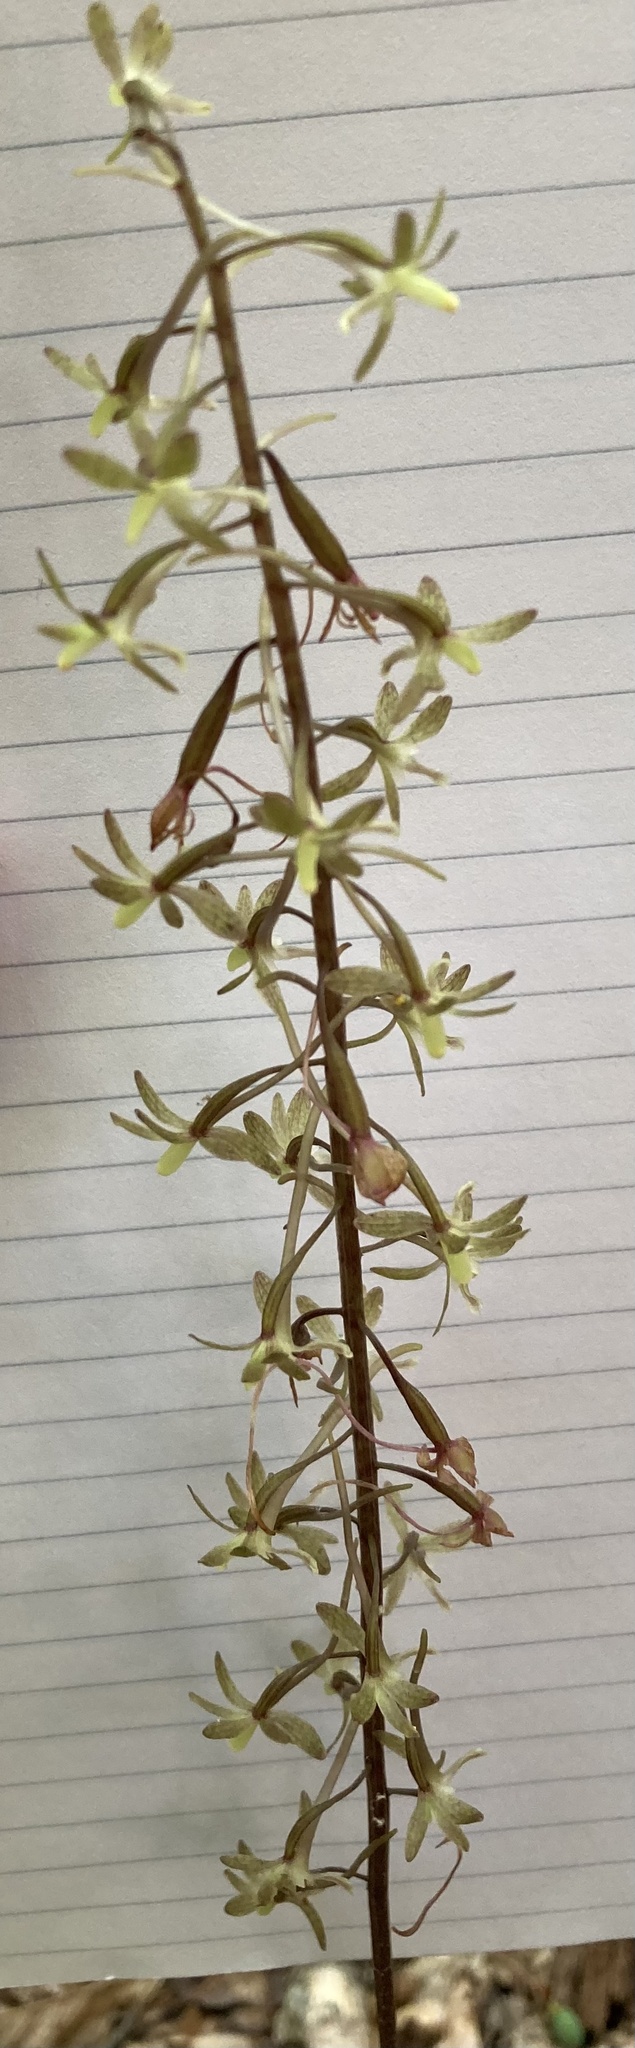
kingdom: Plantae
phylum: Tracheophyta
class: Liliopsida
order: Asparagales
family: Orchidaceae
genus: Tipularia
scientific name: Tipularia discolor
